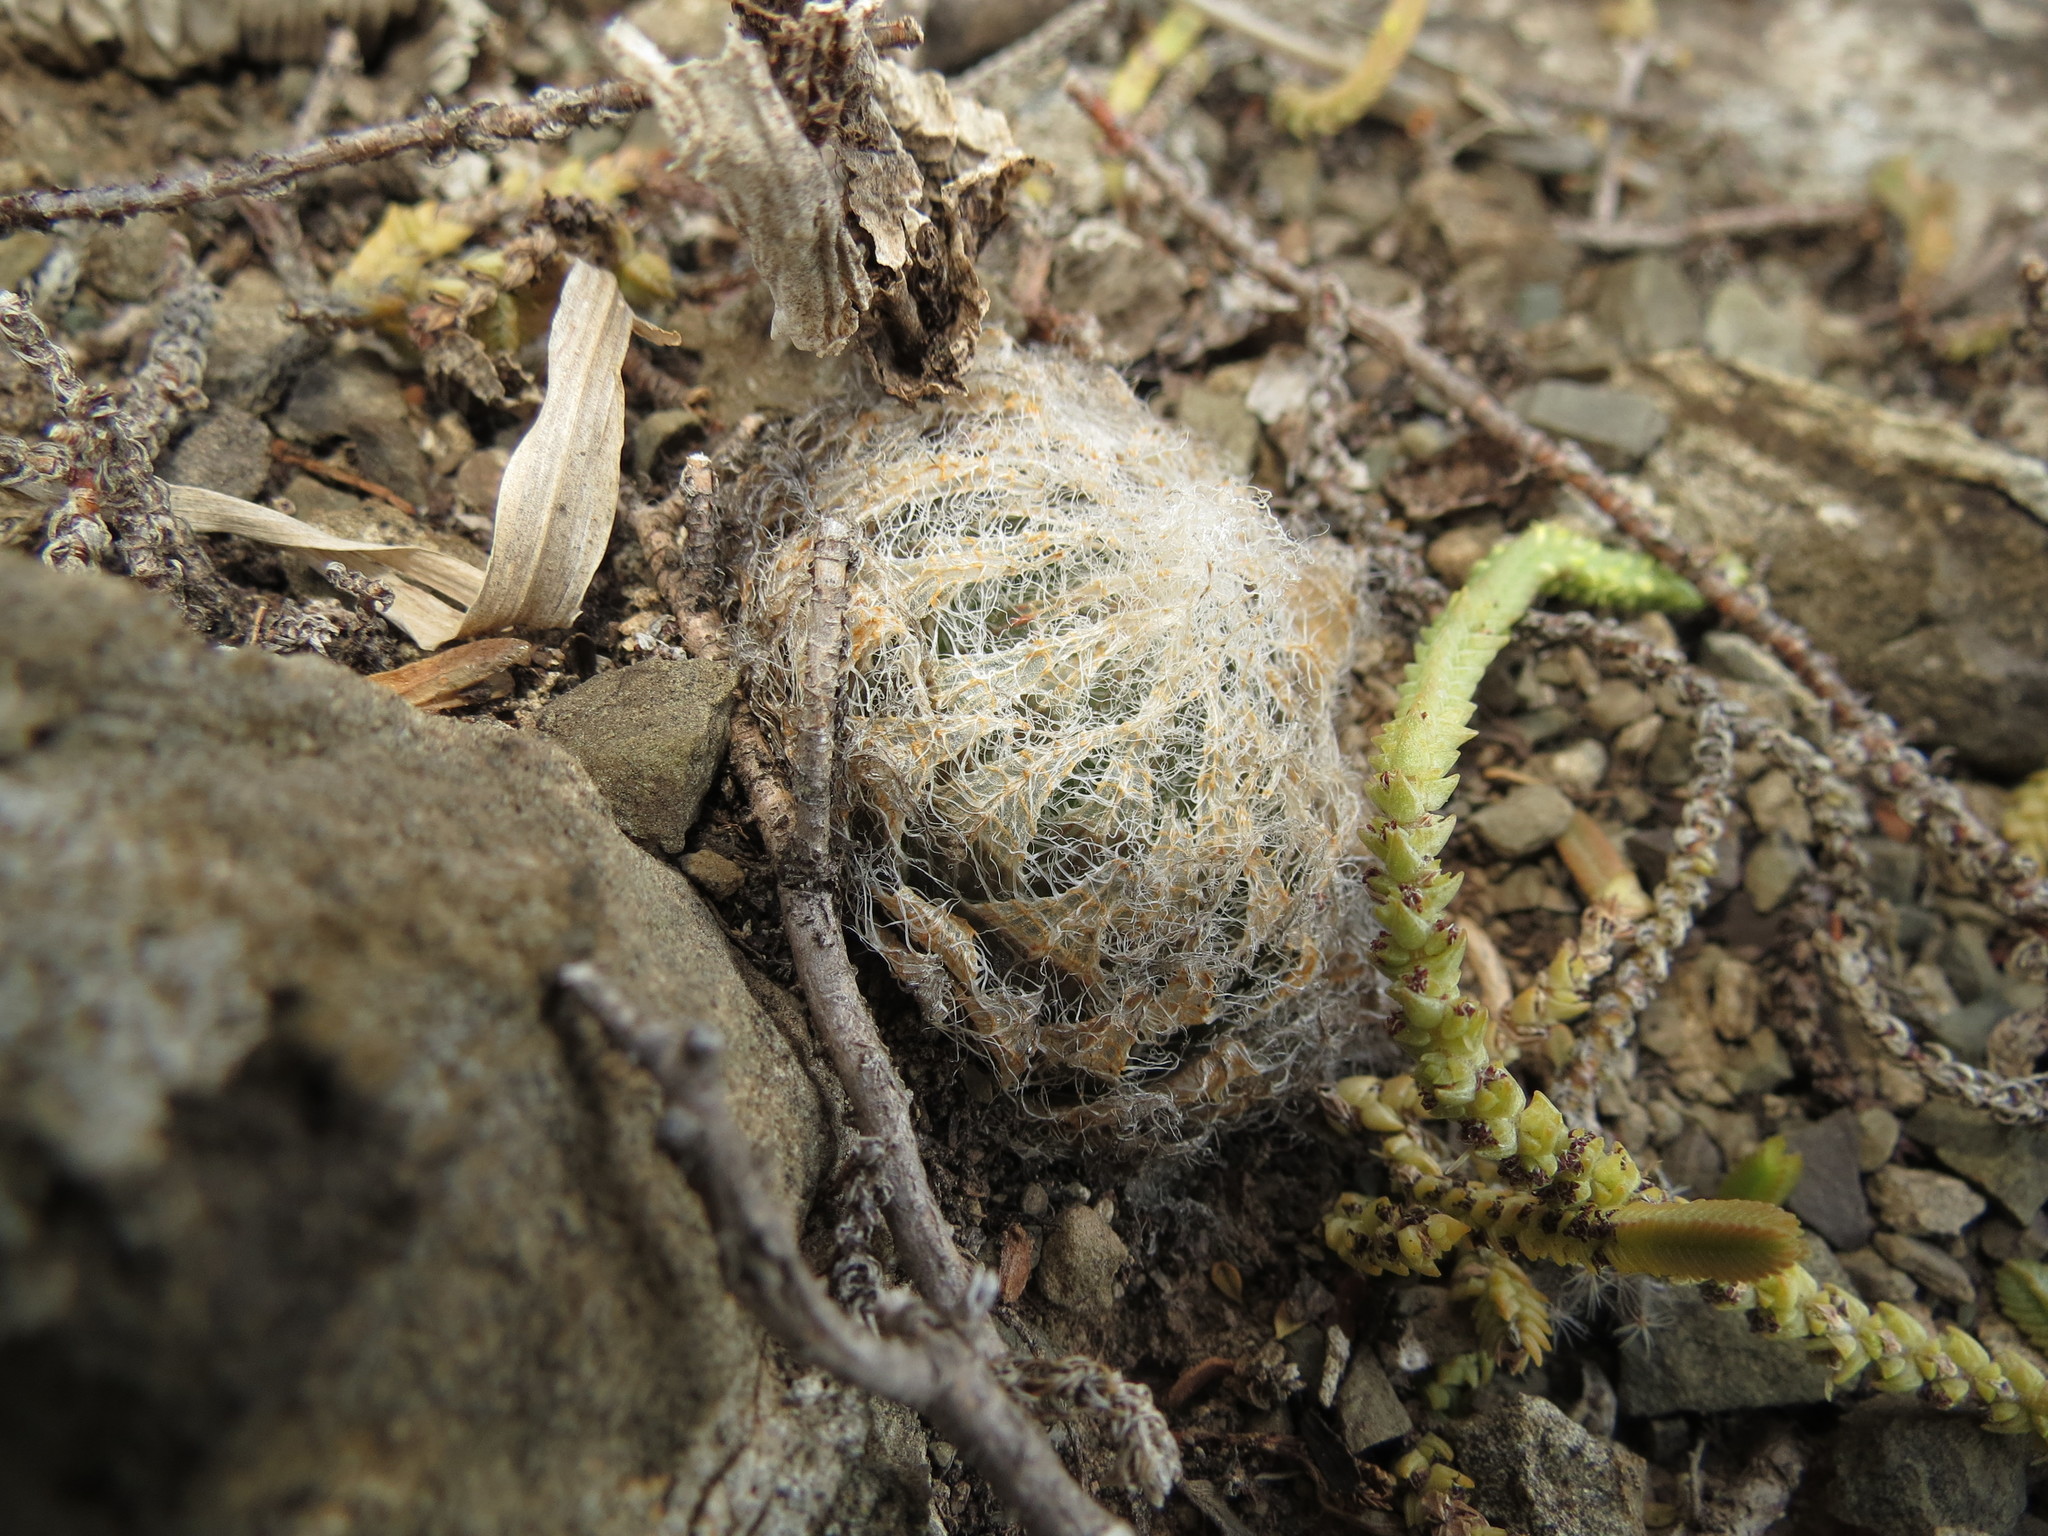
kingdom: Plantae
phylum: Tracheophyta
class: Liliopsida
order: Asparagales
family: Asphodelaceae
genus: Haworthia
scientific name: Haworthia bolusii
